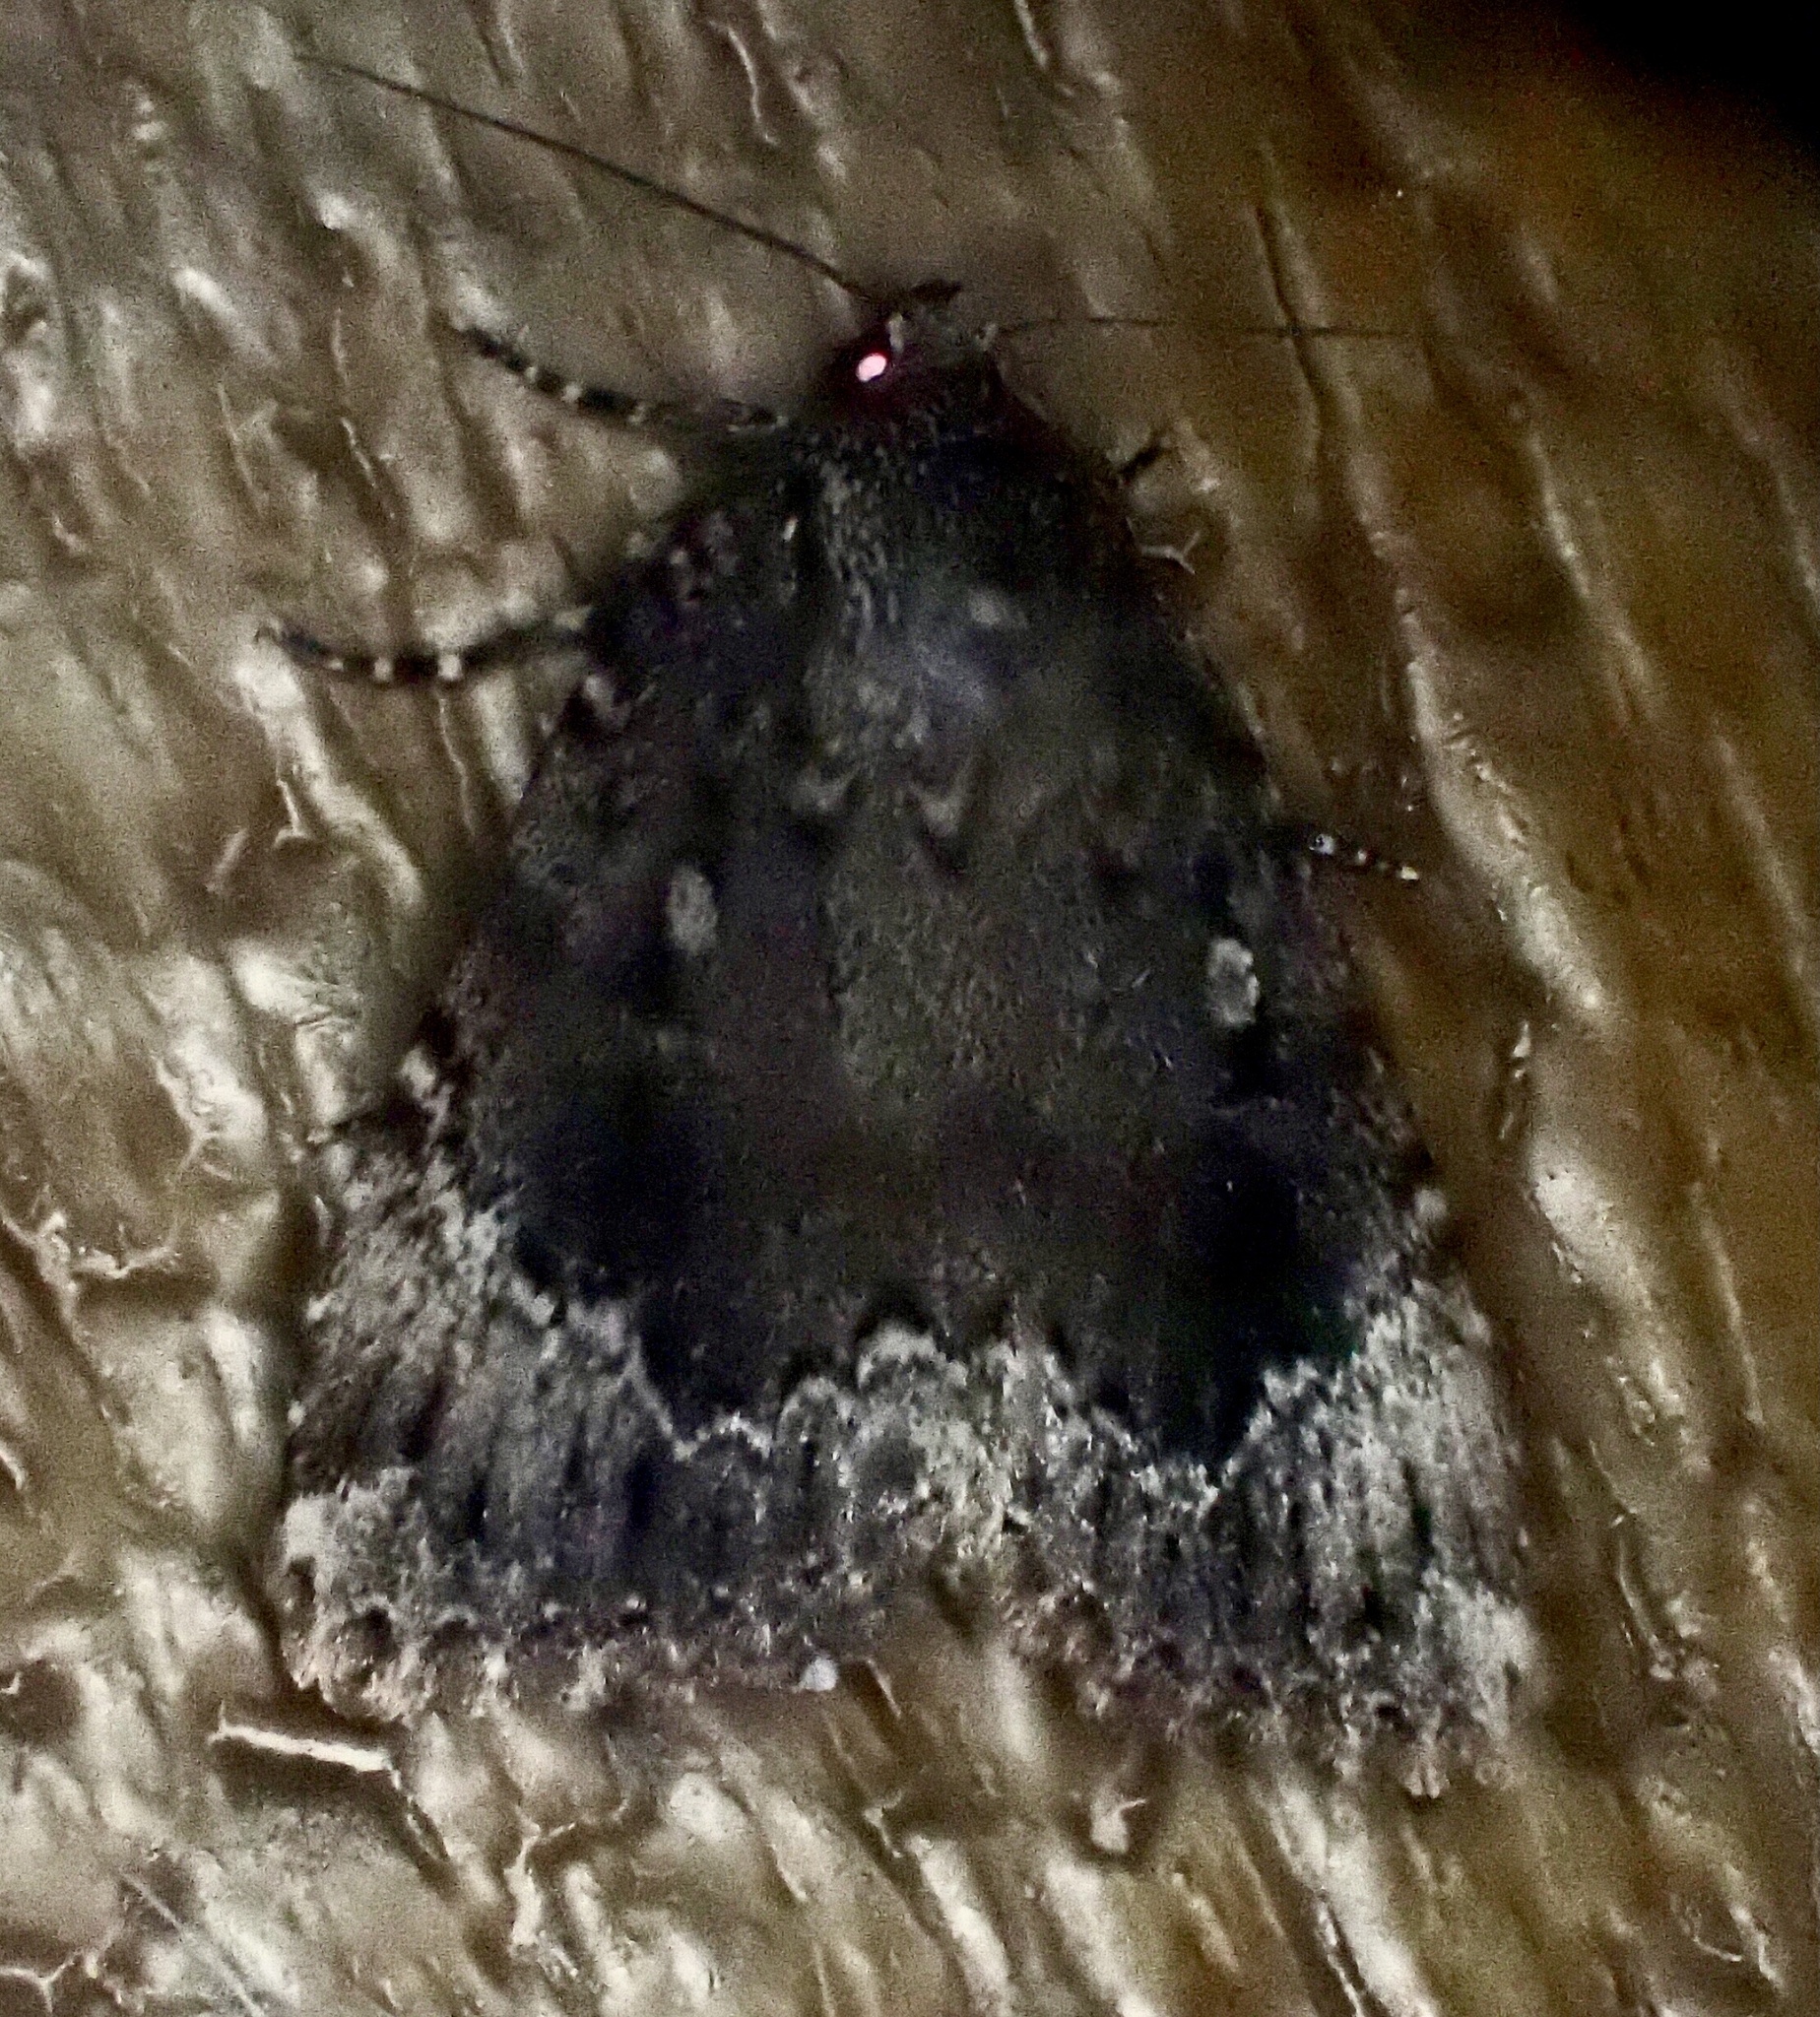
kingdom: Animalia
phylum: Arthropoda
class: Insecta
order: Lepidoptera
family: Noctuidae
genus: Amphipyra
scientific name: Amphipyra pyramidoides
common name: American copper underwing
